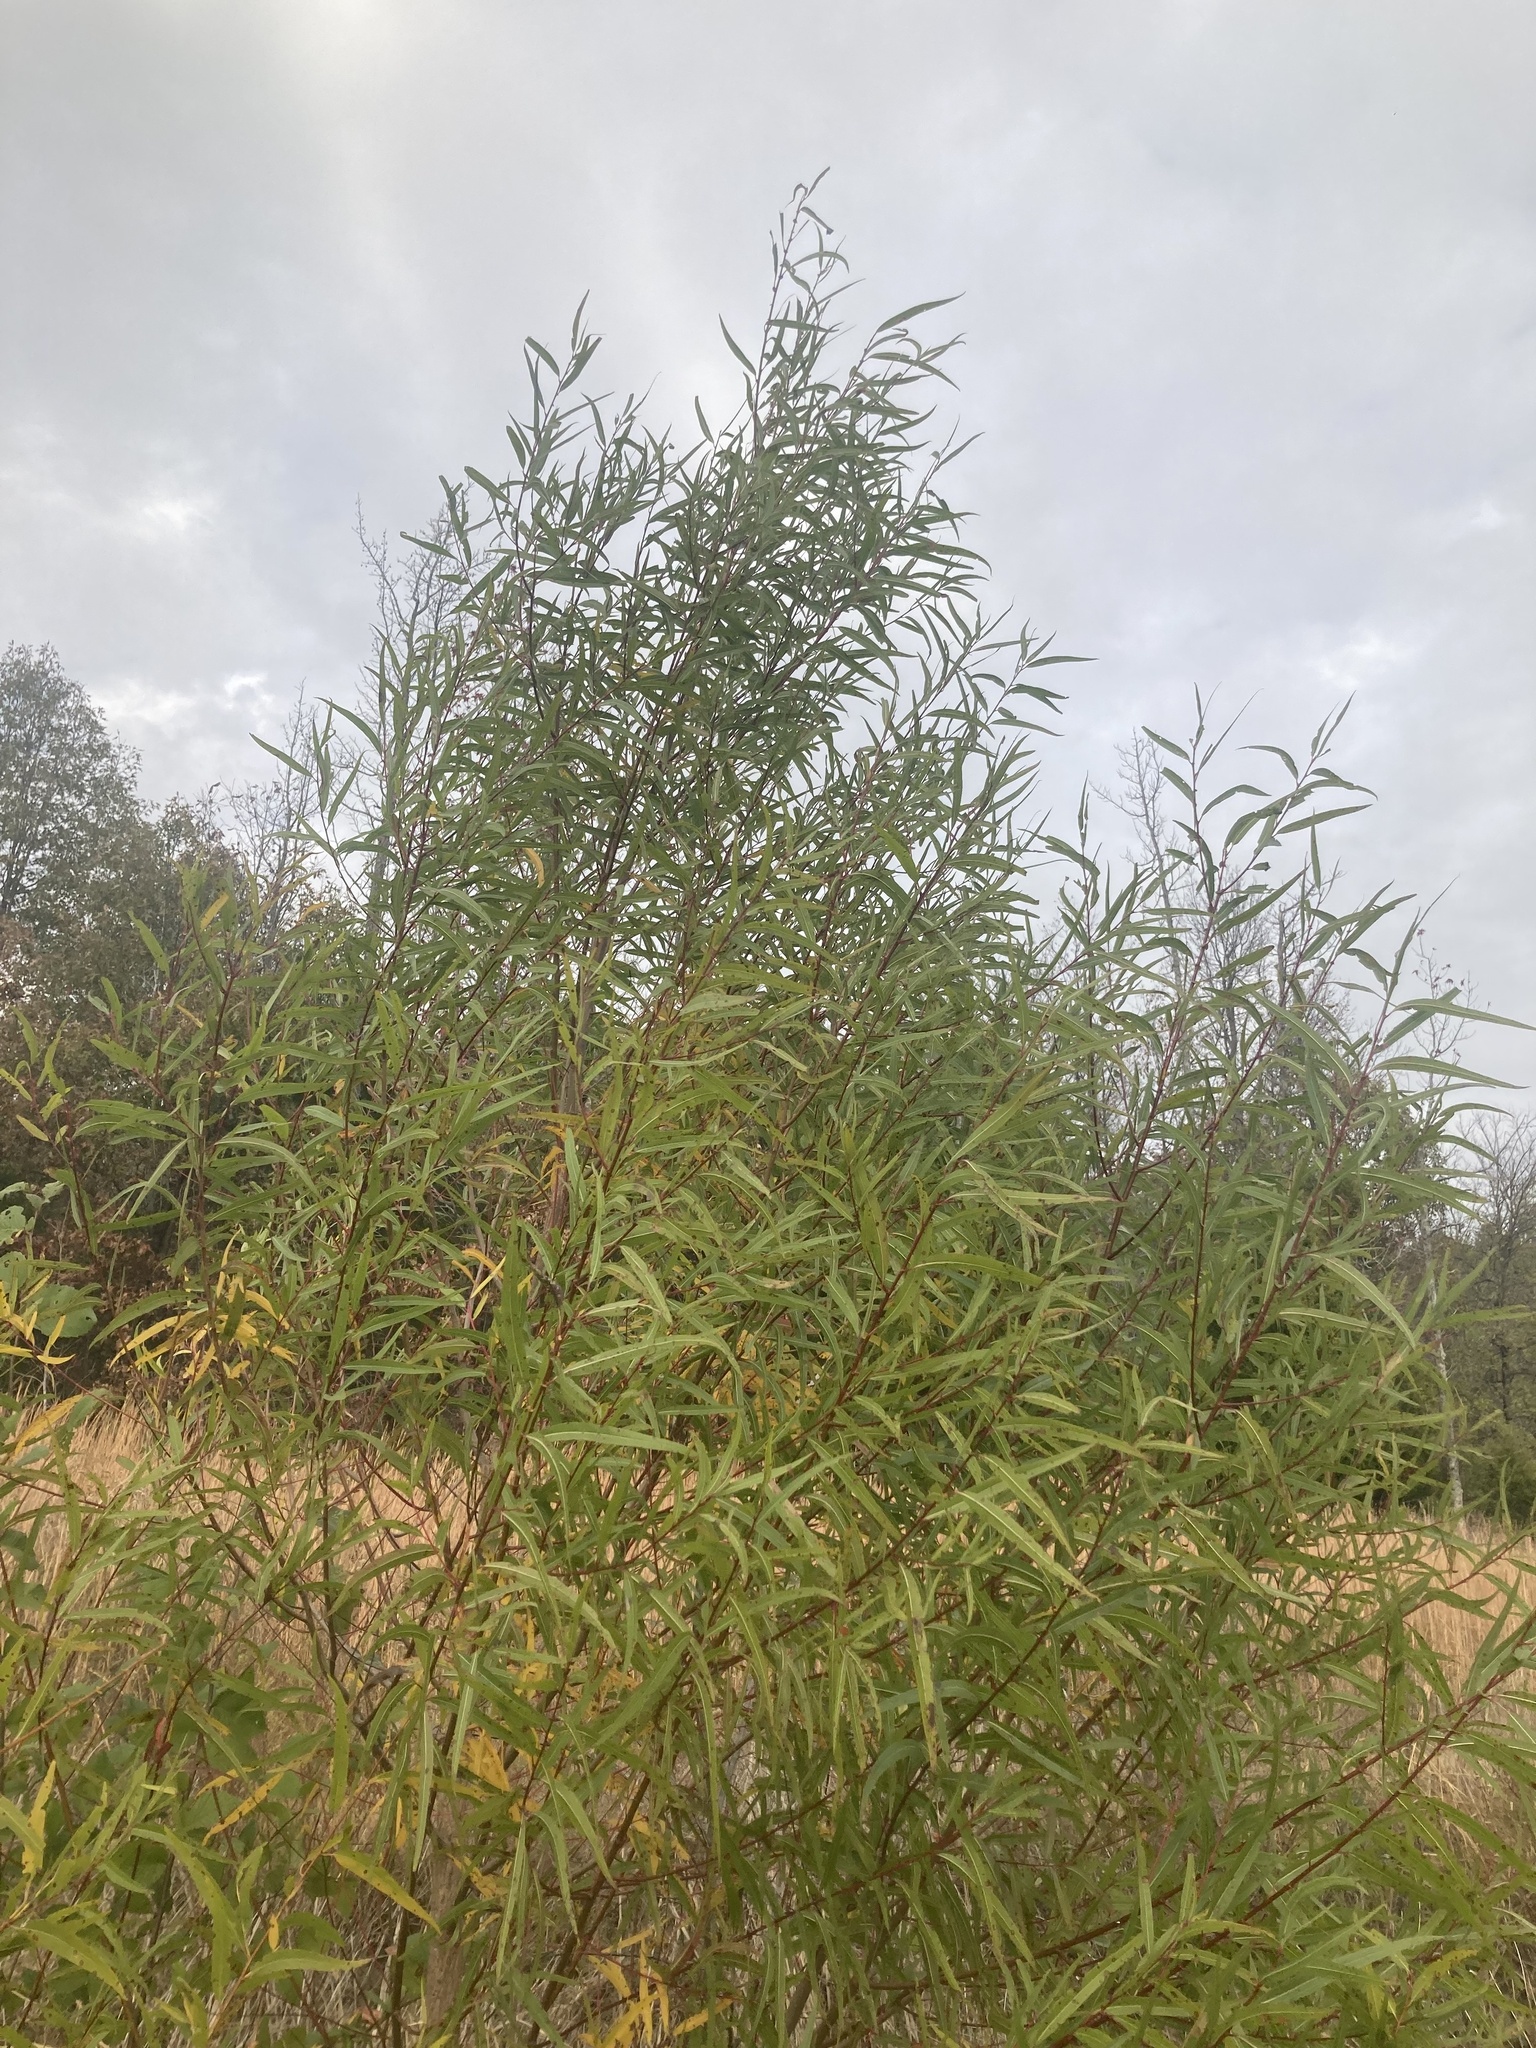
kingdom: Plantae
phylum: Tracheophyta
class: Magnoliopsida
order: Malpighiales
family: Salicaceae
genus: Salix
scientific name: Salix nigra
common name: Black willow
